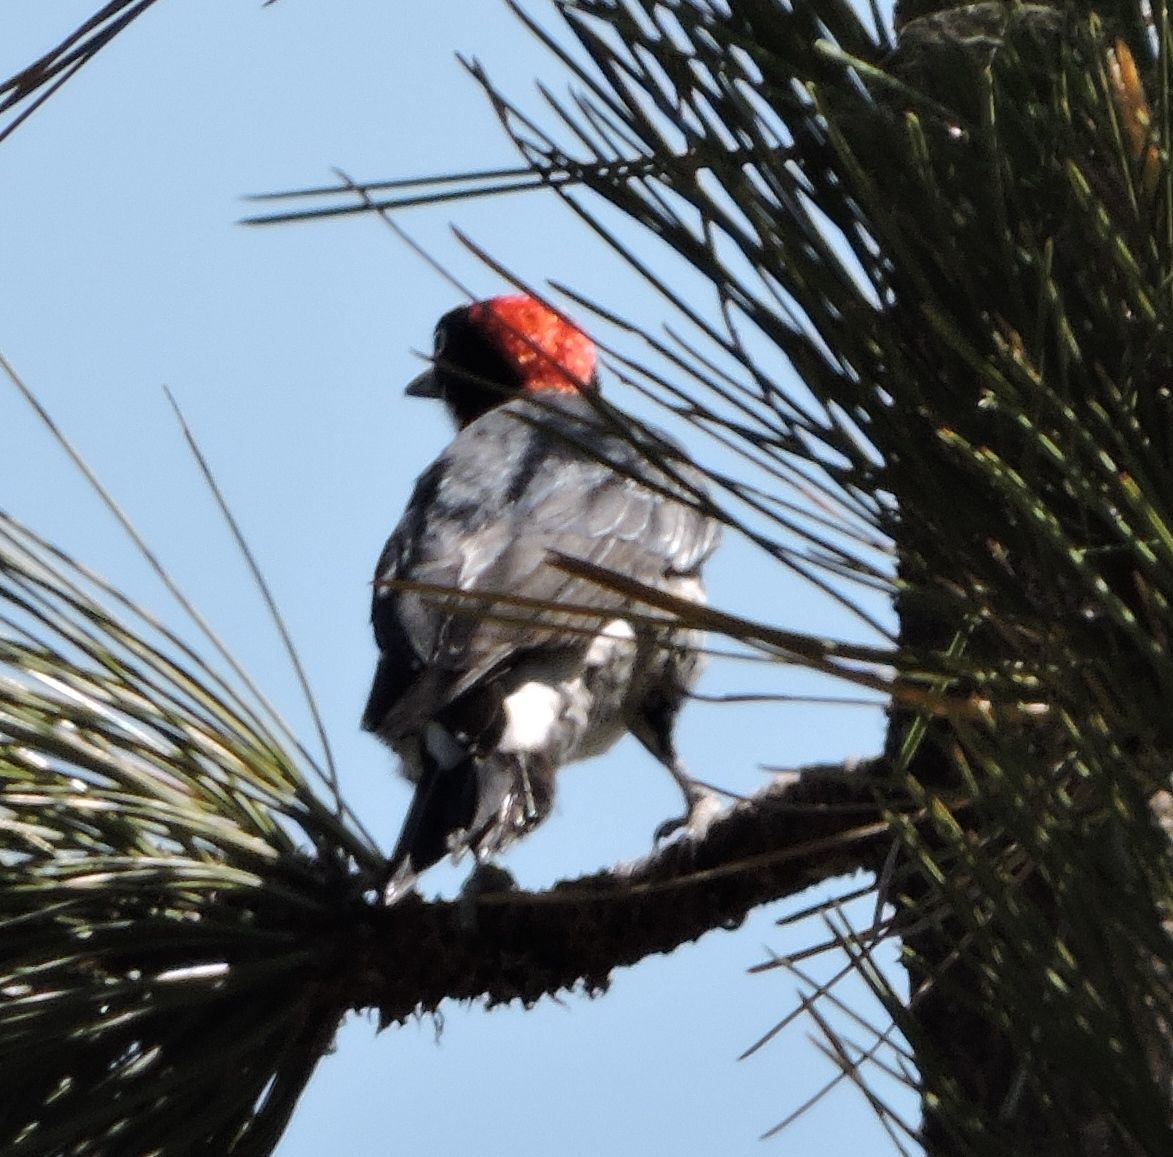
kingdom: Animalia
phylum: Chordata
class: Aves
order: Piciformes
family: Picidae
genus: Melanerpes
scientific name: Melanerpes formicivorus
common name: Acorn woodpecker
